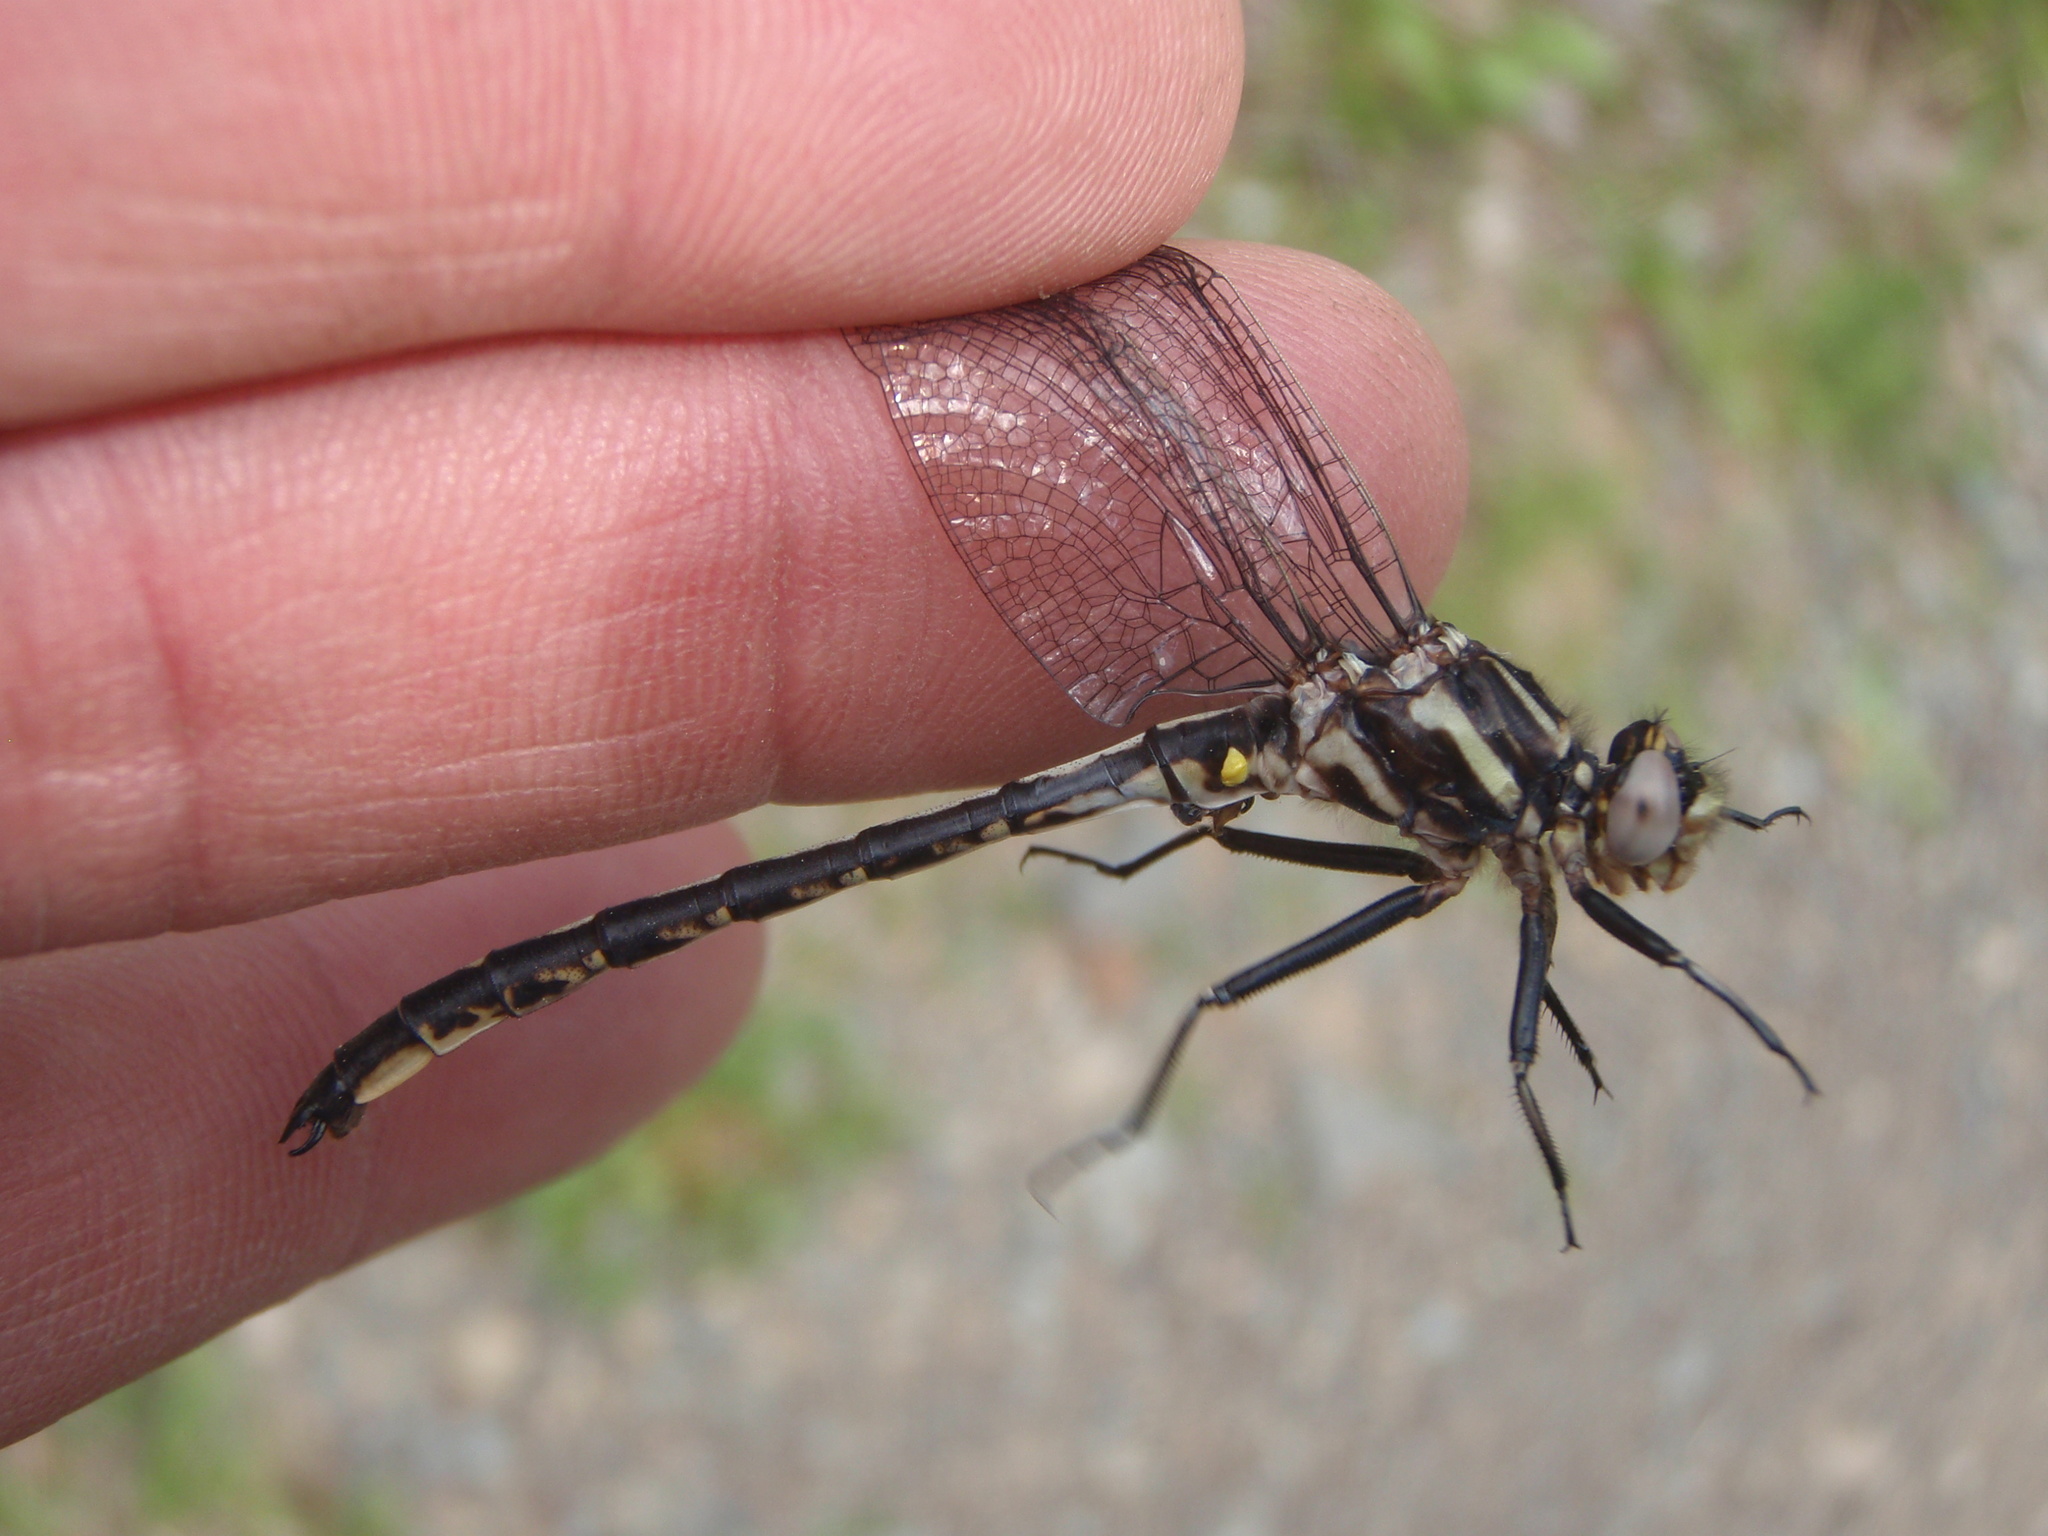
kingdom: Animalia
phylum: Arthropoda
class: Insecta
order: Odonata
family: Gomphidae
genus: Phanogomphus
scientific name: Phanogomphus spicatus
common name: Dusky clubtail
